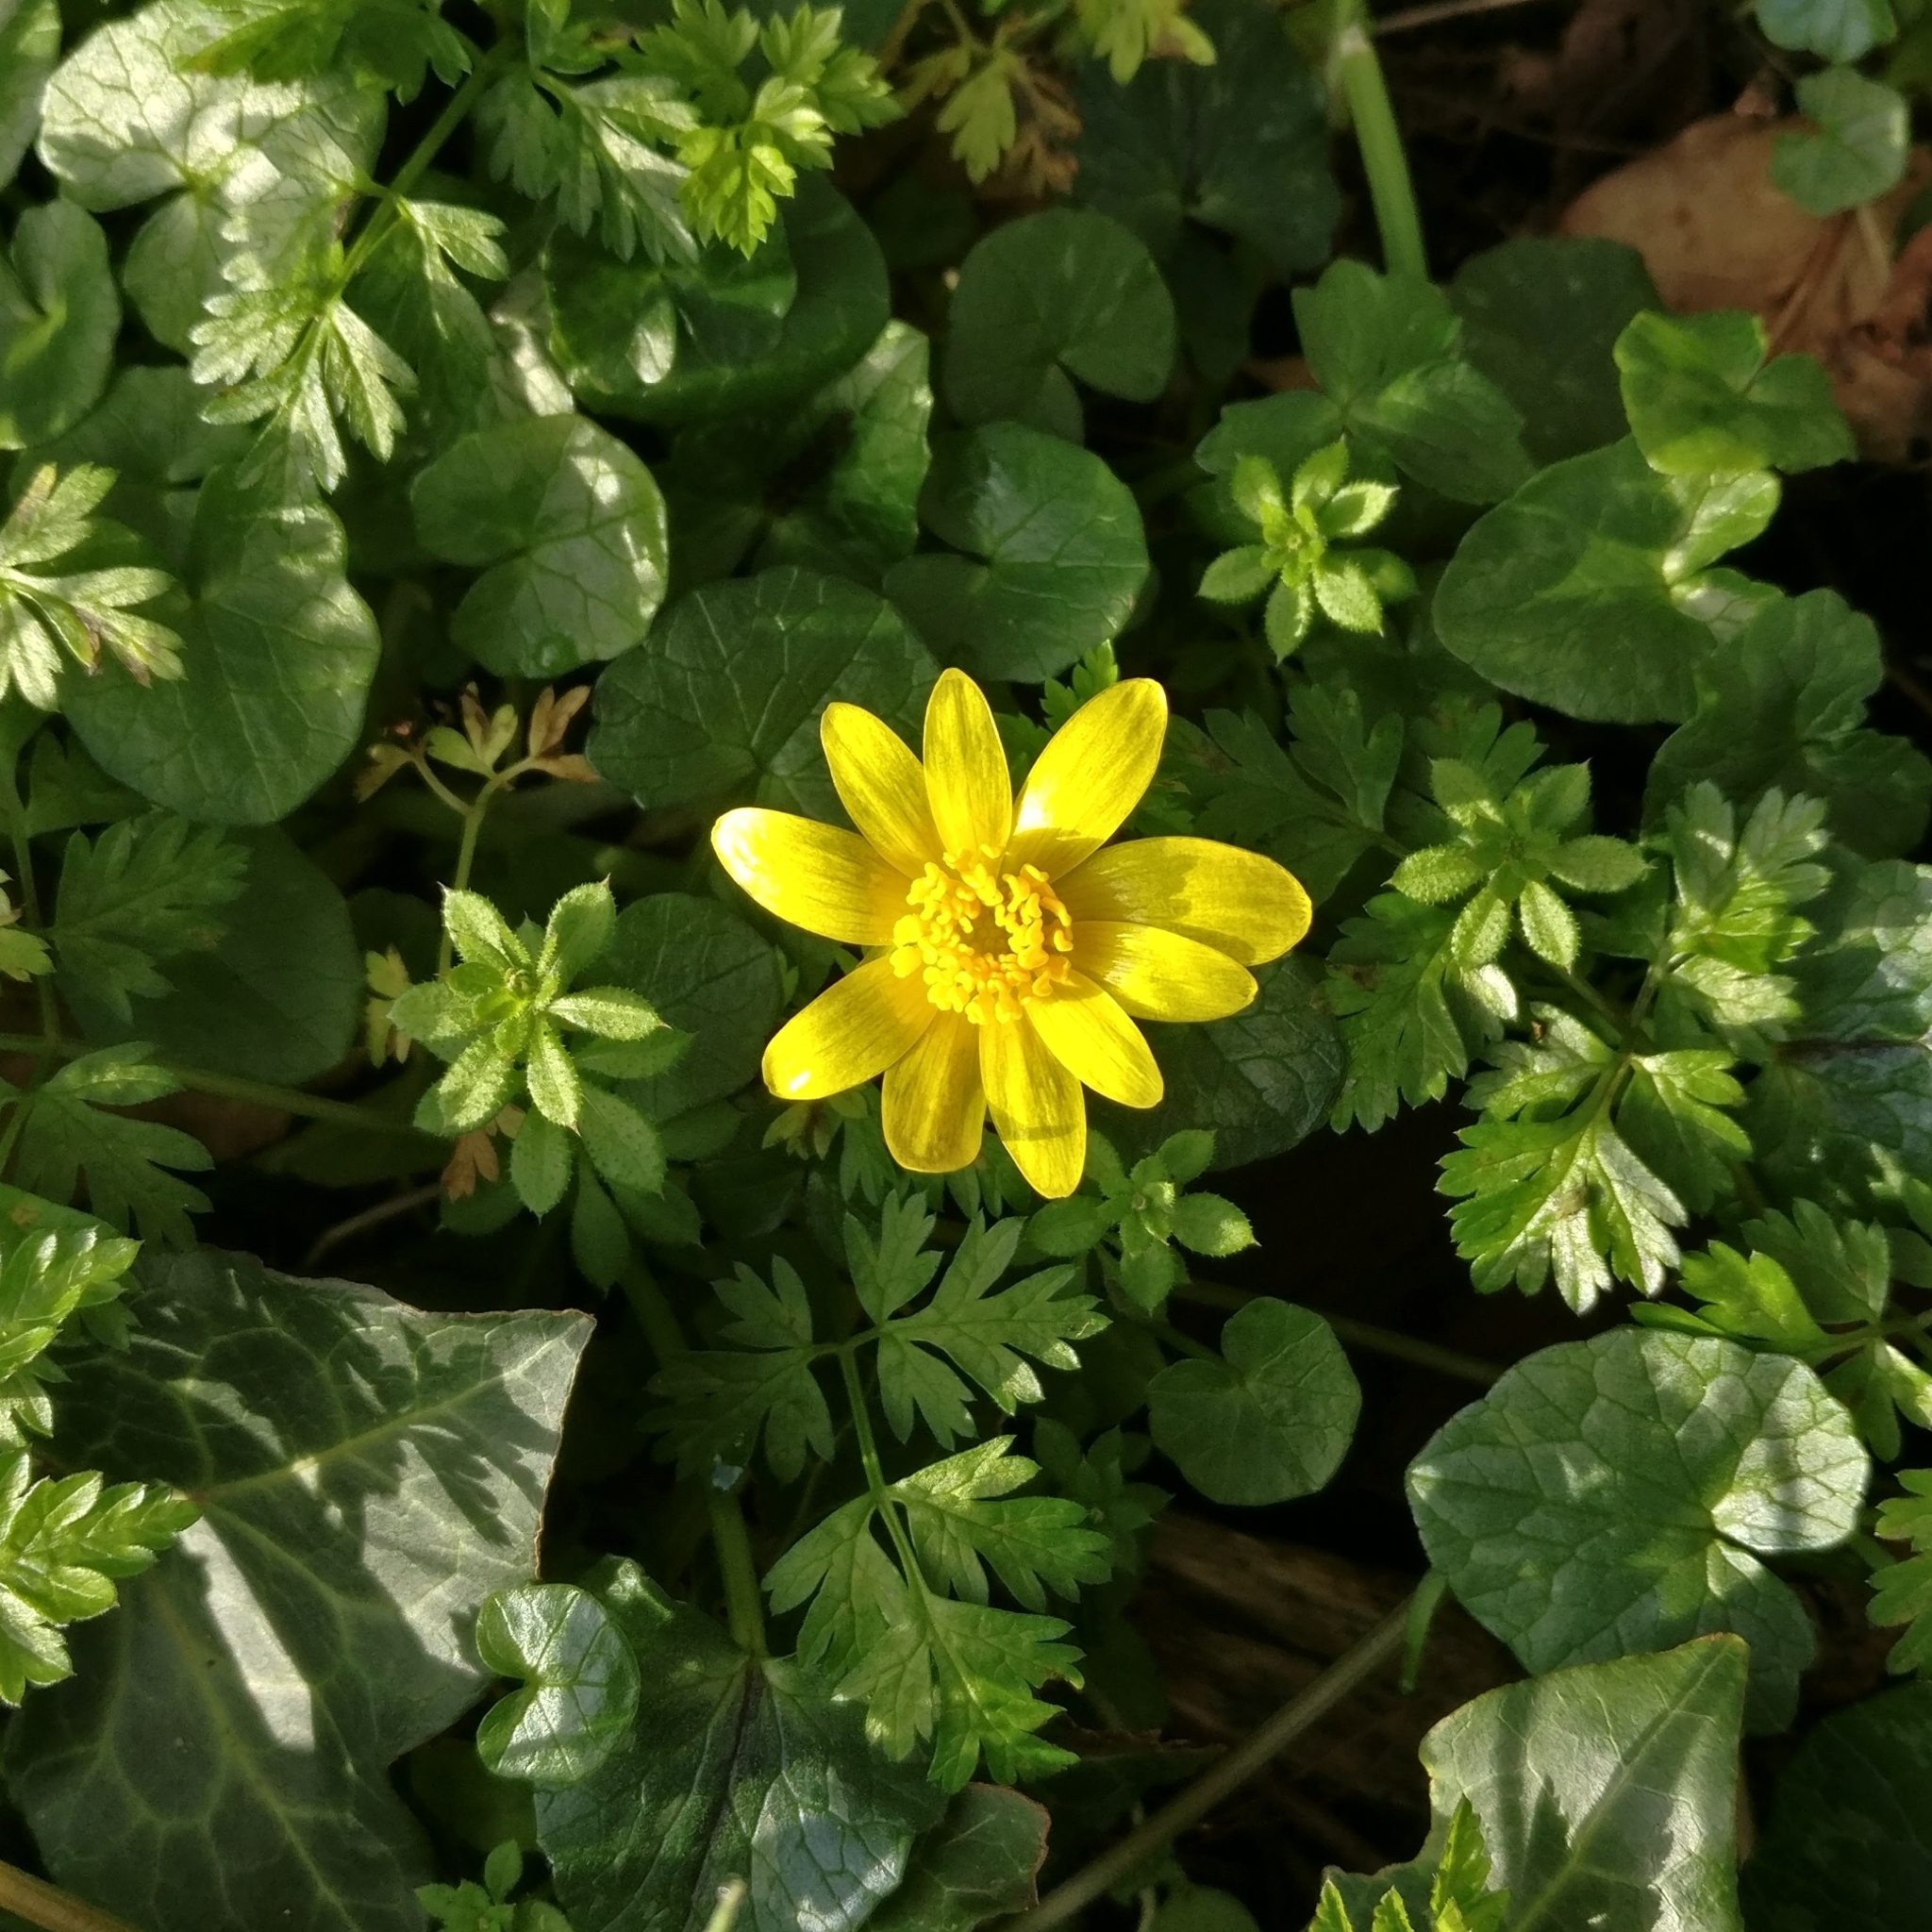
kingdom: Plantae
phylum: Tracheophyta
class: Magnoliopsida
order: Ranunculales
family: Ranunculaceae
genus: Ficaria
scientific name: Ficaria verna
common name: Lesser celandine
